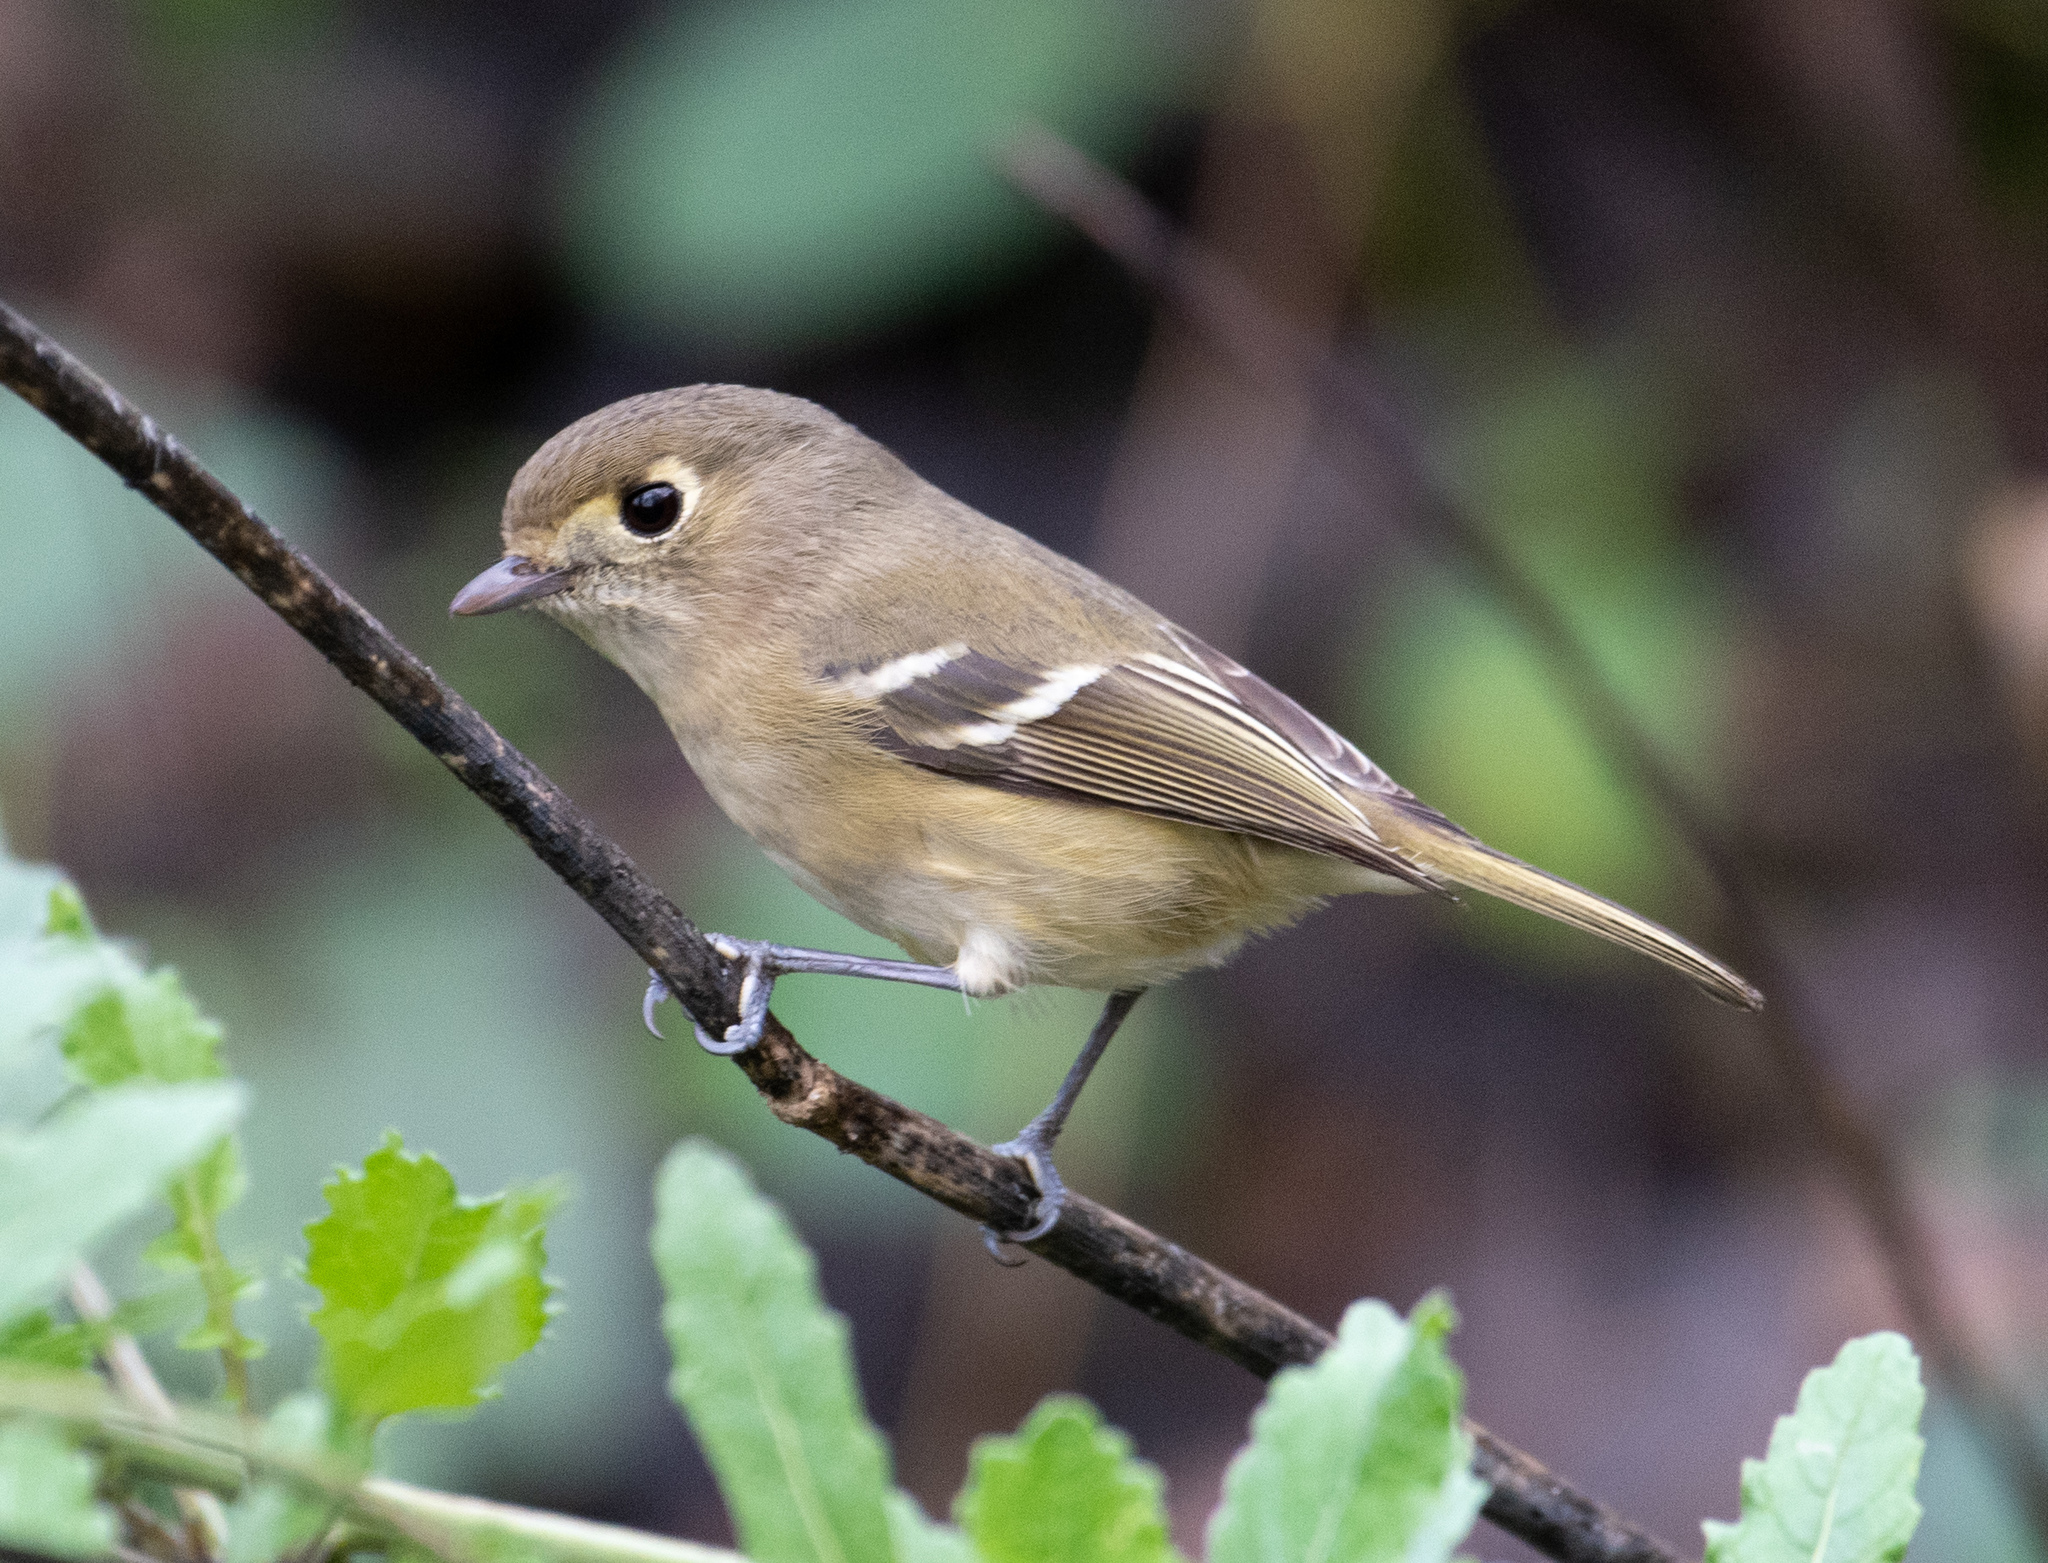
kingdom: Animalia
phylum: Chordata
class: Aves
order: Passeriformes
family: Vireonidae
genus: Vireo
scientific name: Vireo huttoni
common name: Hutton's vireo
